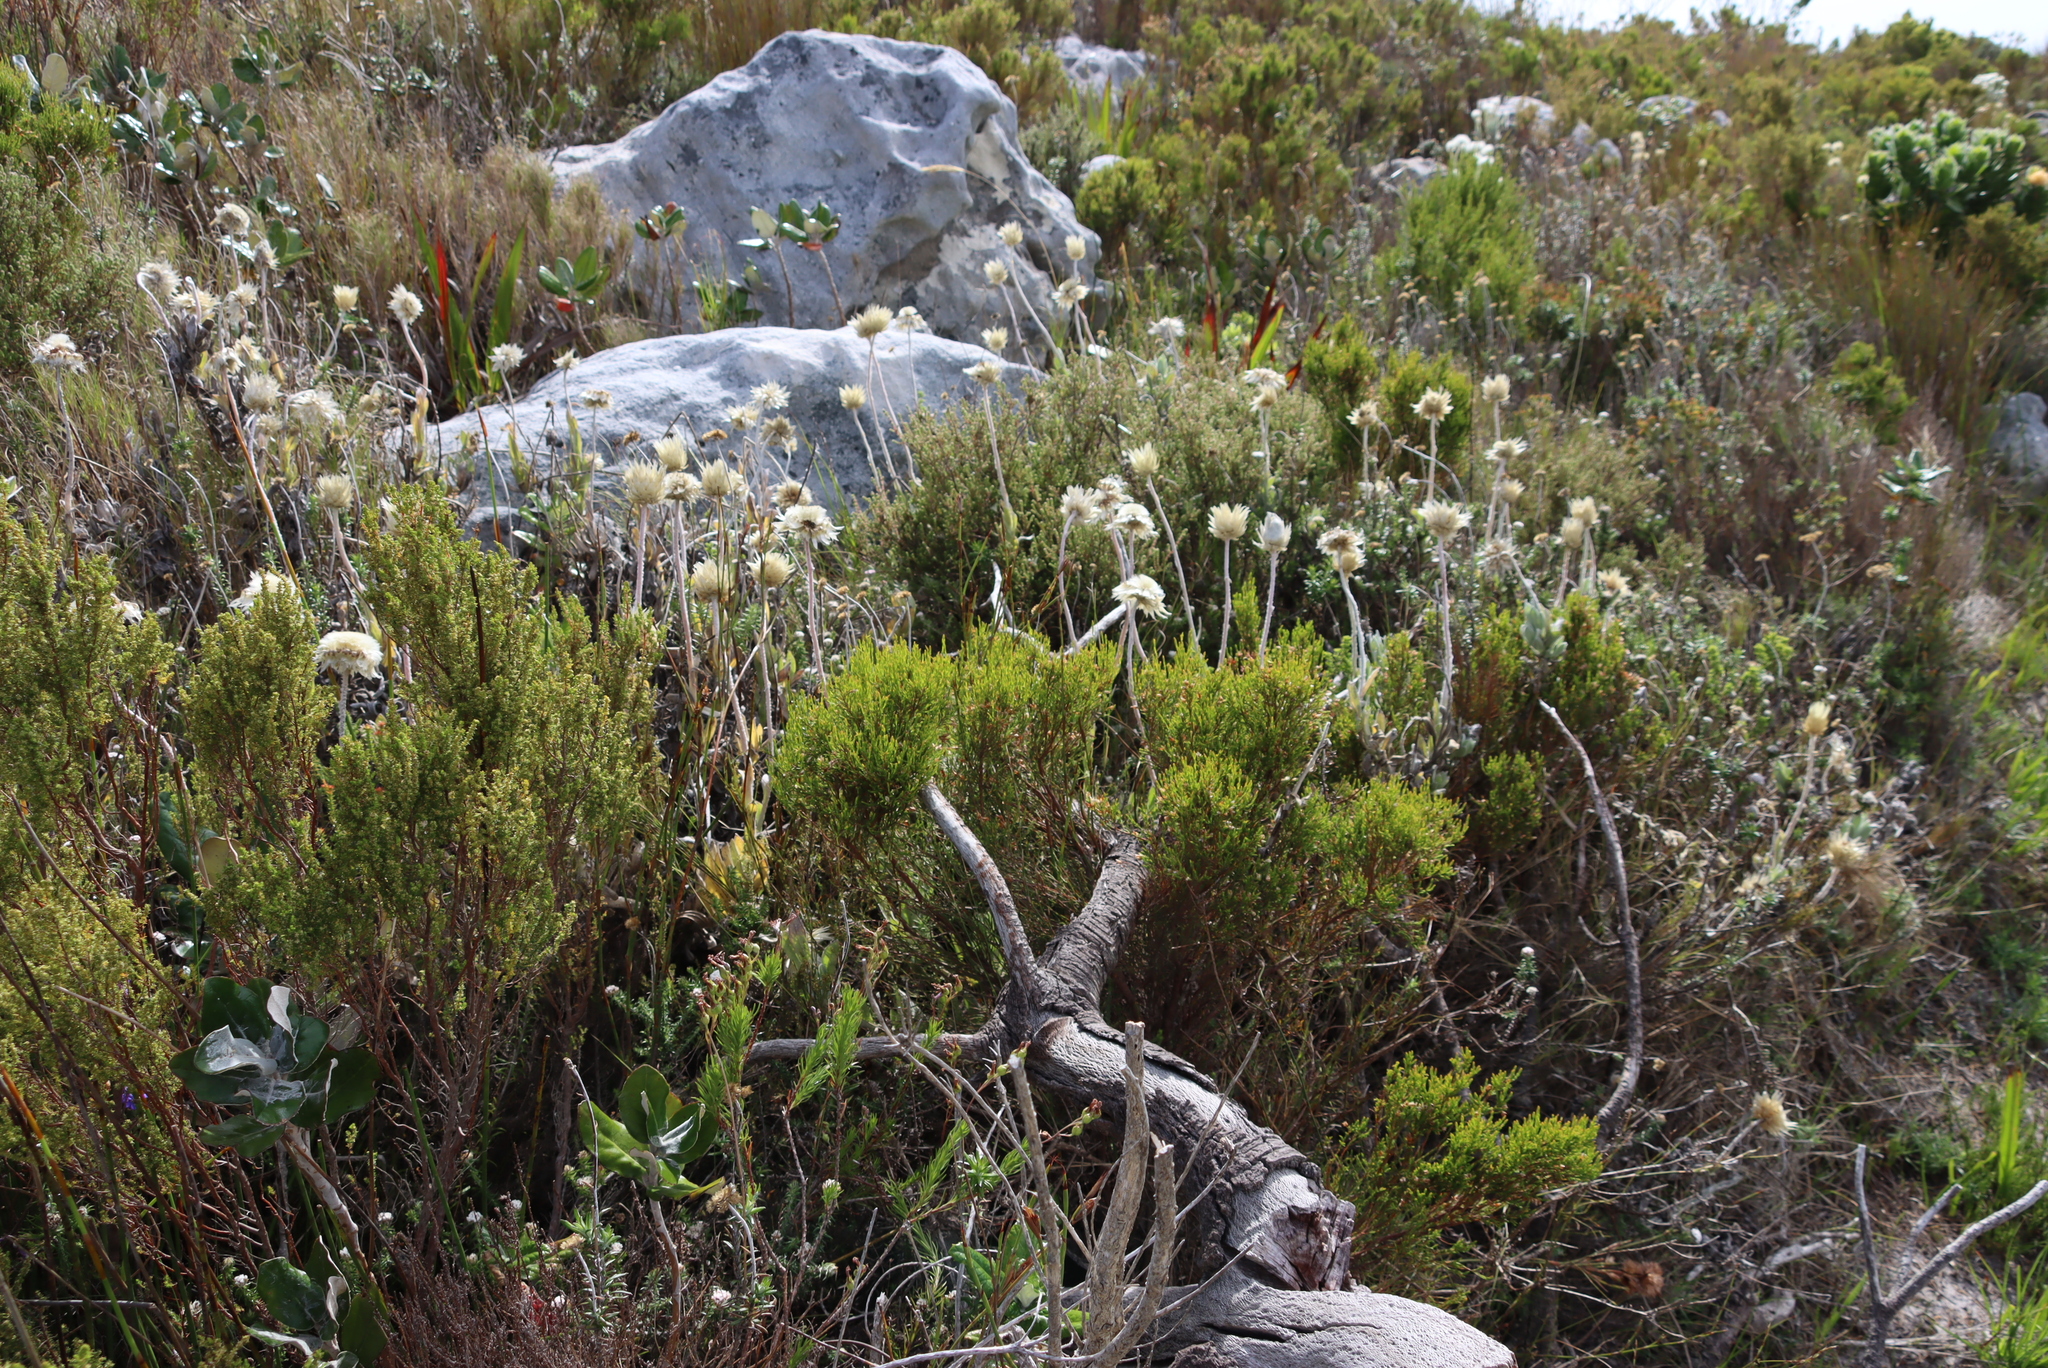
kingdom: Plantae
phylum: Tracheophyta
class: Magnoliopsida
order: Asterales
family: Asteraceae
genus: Syncarpha
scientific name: Syncarpha speciosissima
